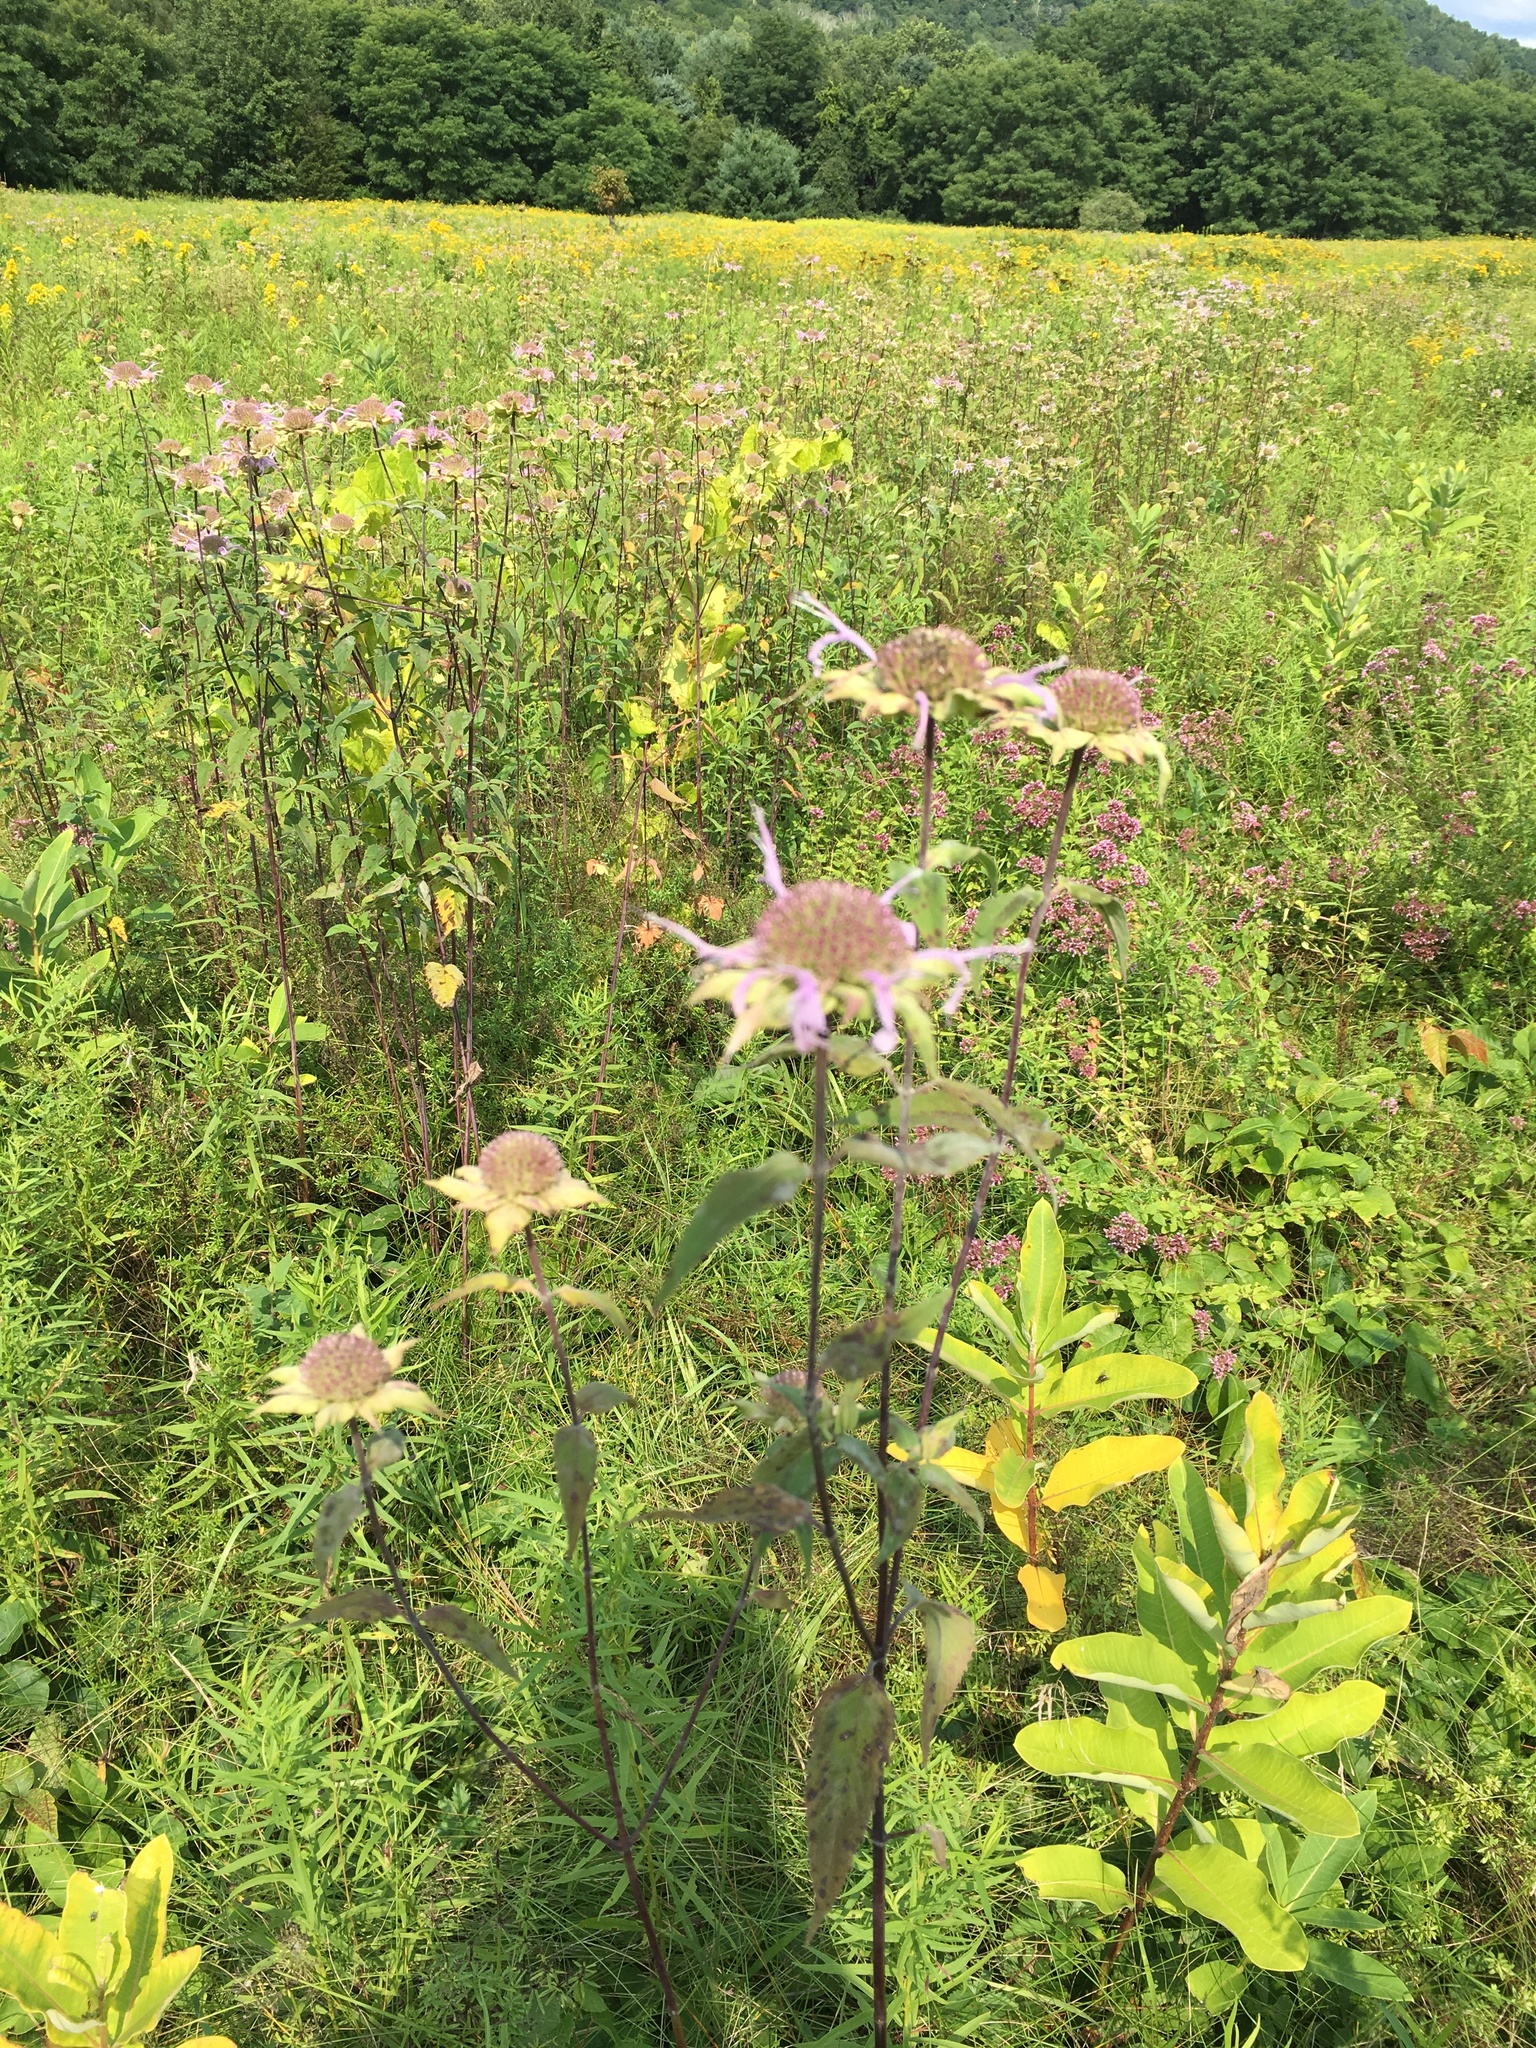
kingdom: Plantae
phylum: Tracheophyta
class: Magnoliopsida
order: Lamiales
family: Lamiaceae
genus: Monarda
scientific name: Monarda fistulosa
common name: Purple beebalm
